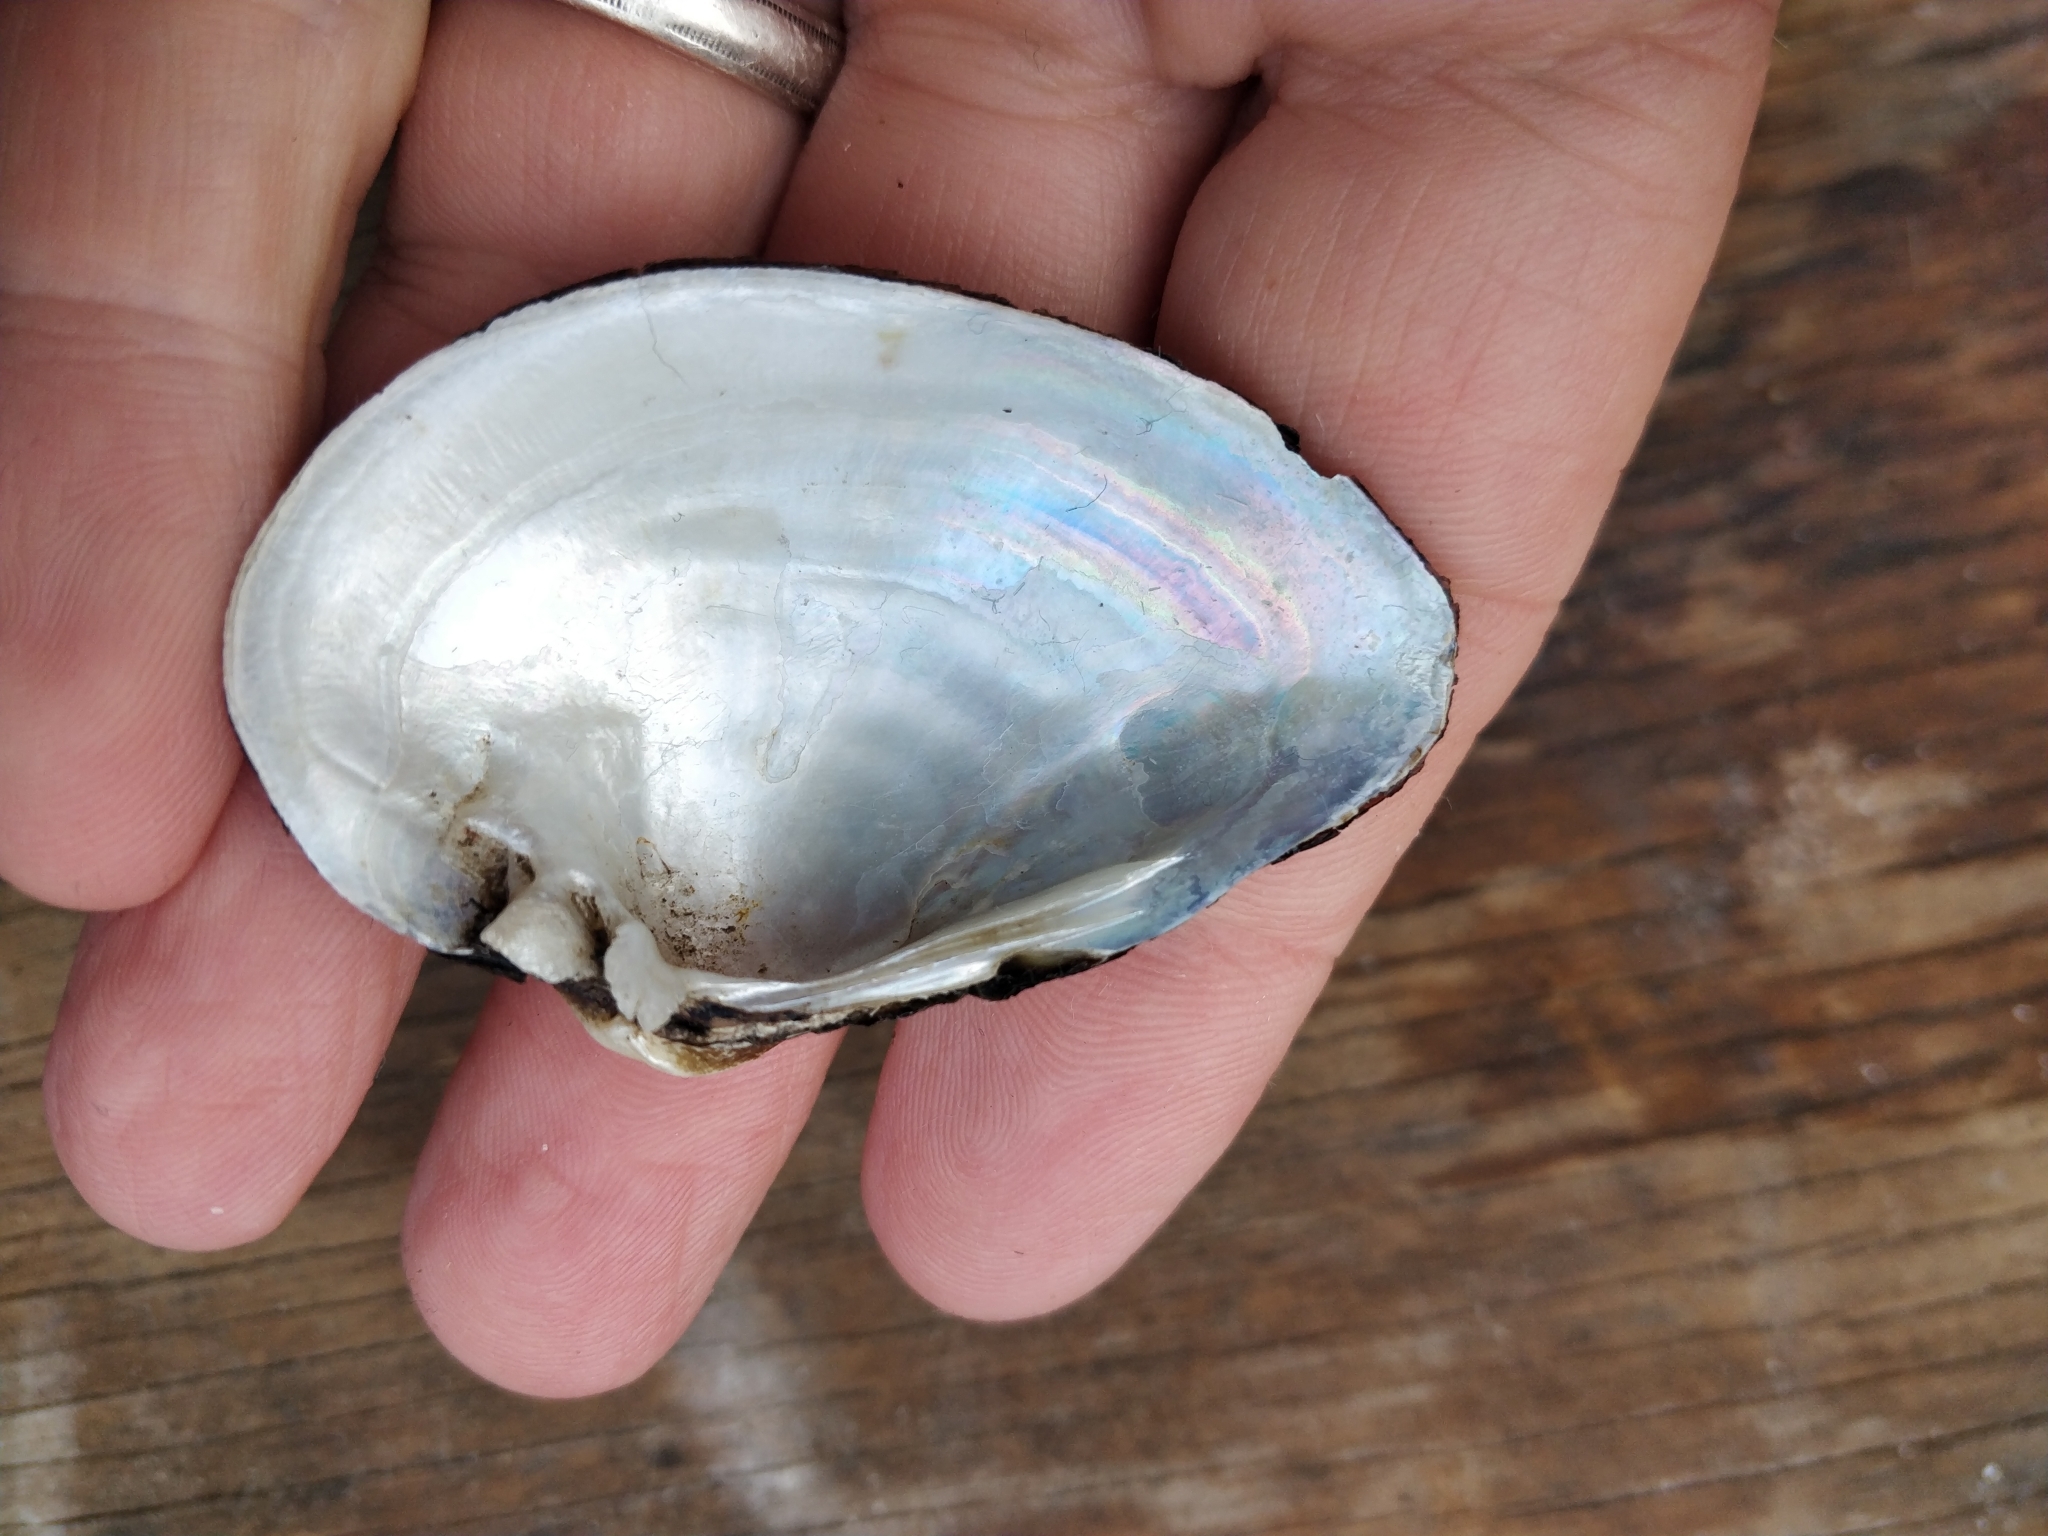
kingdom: Animalia
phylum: Mollusca
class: Bivalvia
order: Unionida
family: Unionidae
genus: Truncilla
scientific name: Truncilla truncata
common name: Deertoe
